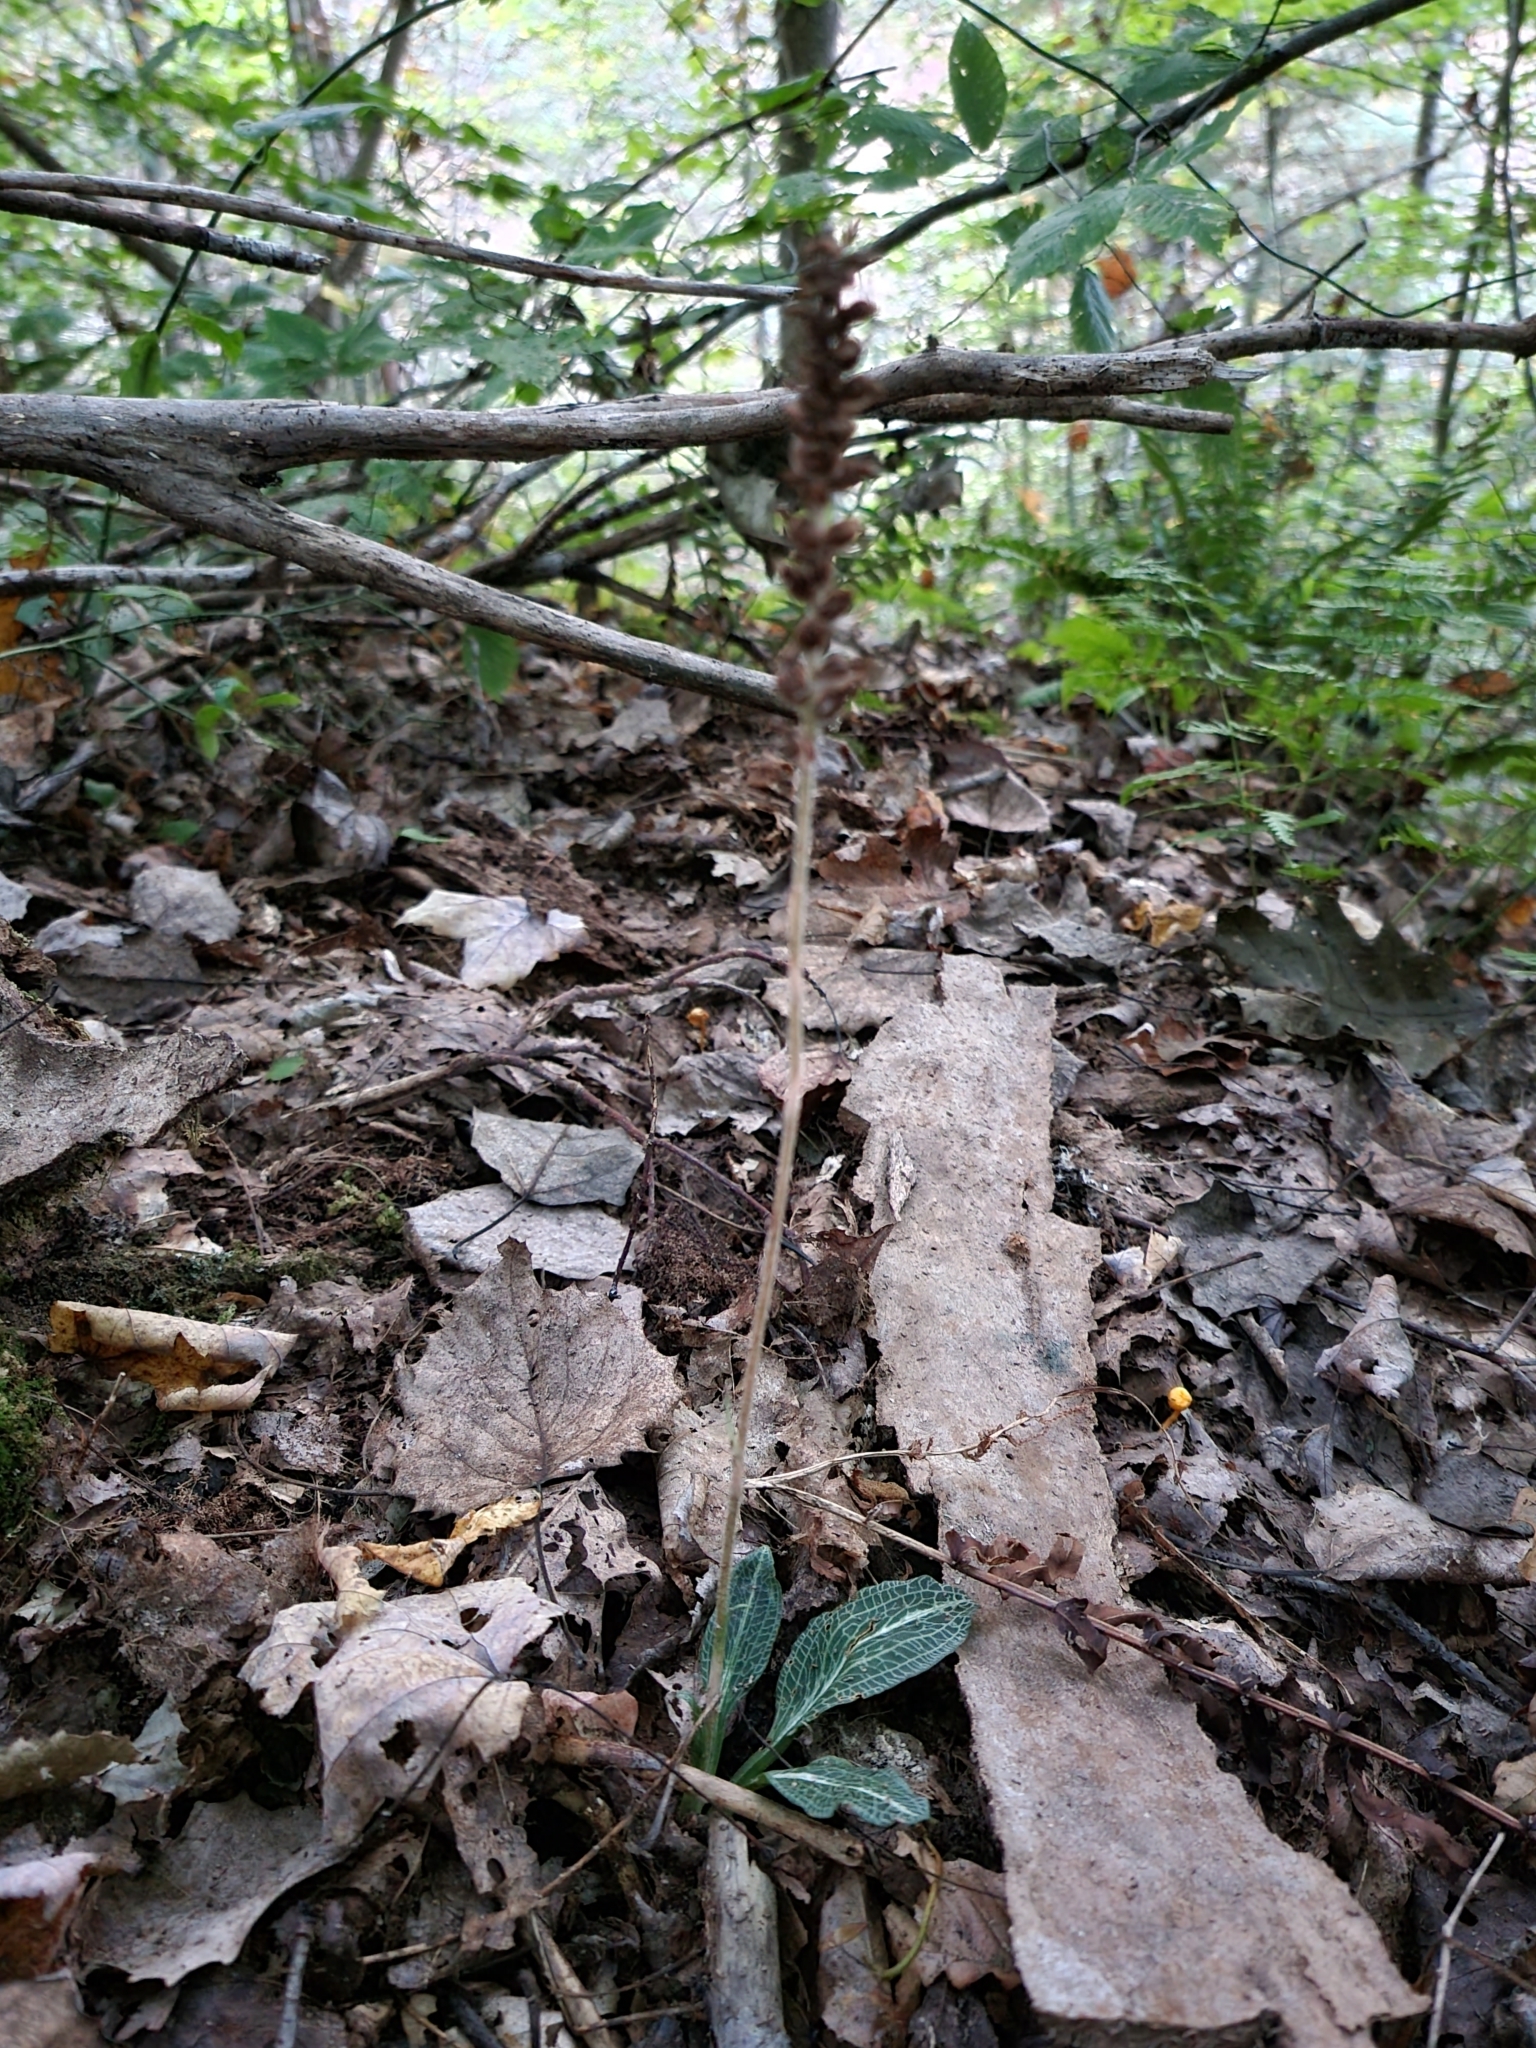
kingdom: Plantae
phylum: Tracheophyta
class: Liliopsida
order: Asparagales
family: Orchidaceae
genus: Goodyera
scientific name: Goodyera pubescens
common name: Downy rattlesnake-plantain
